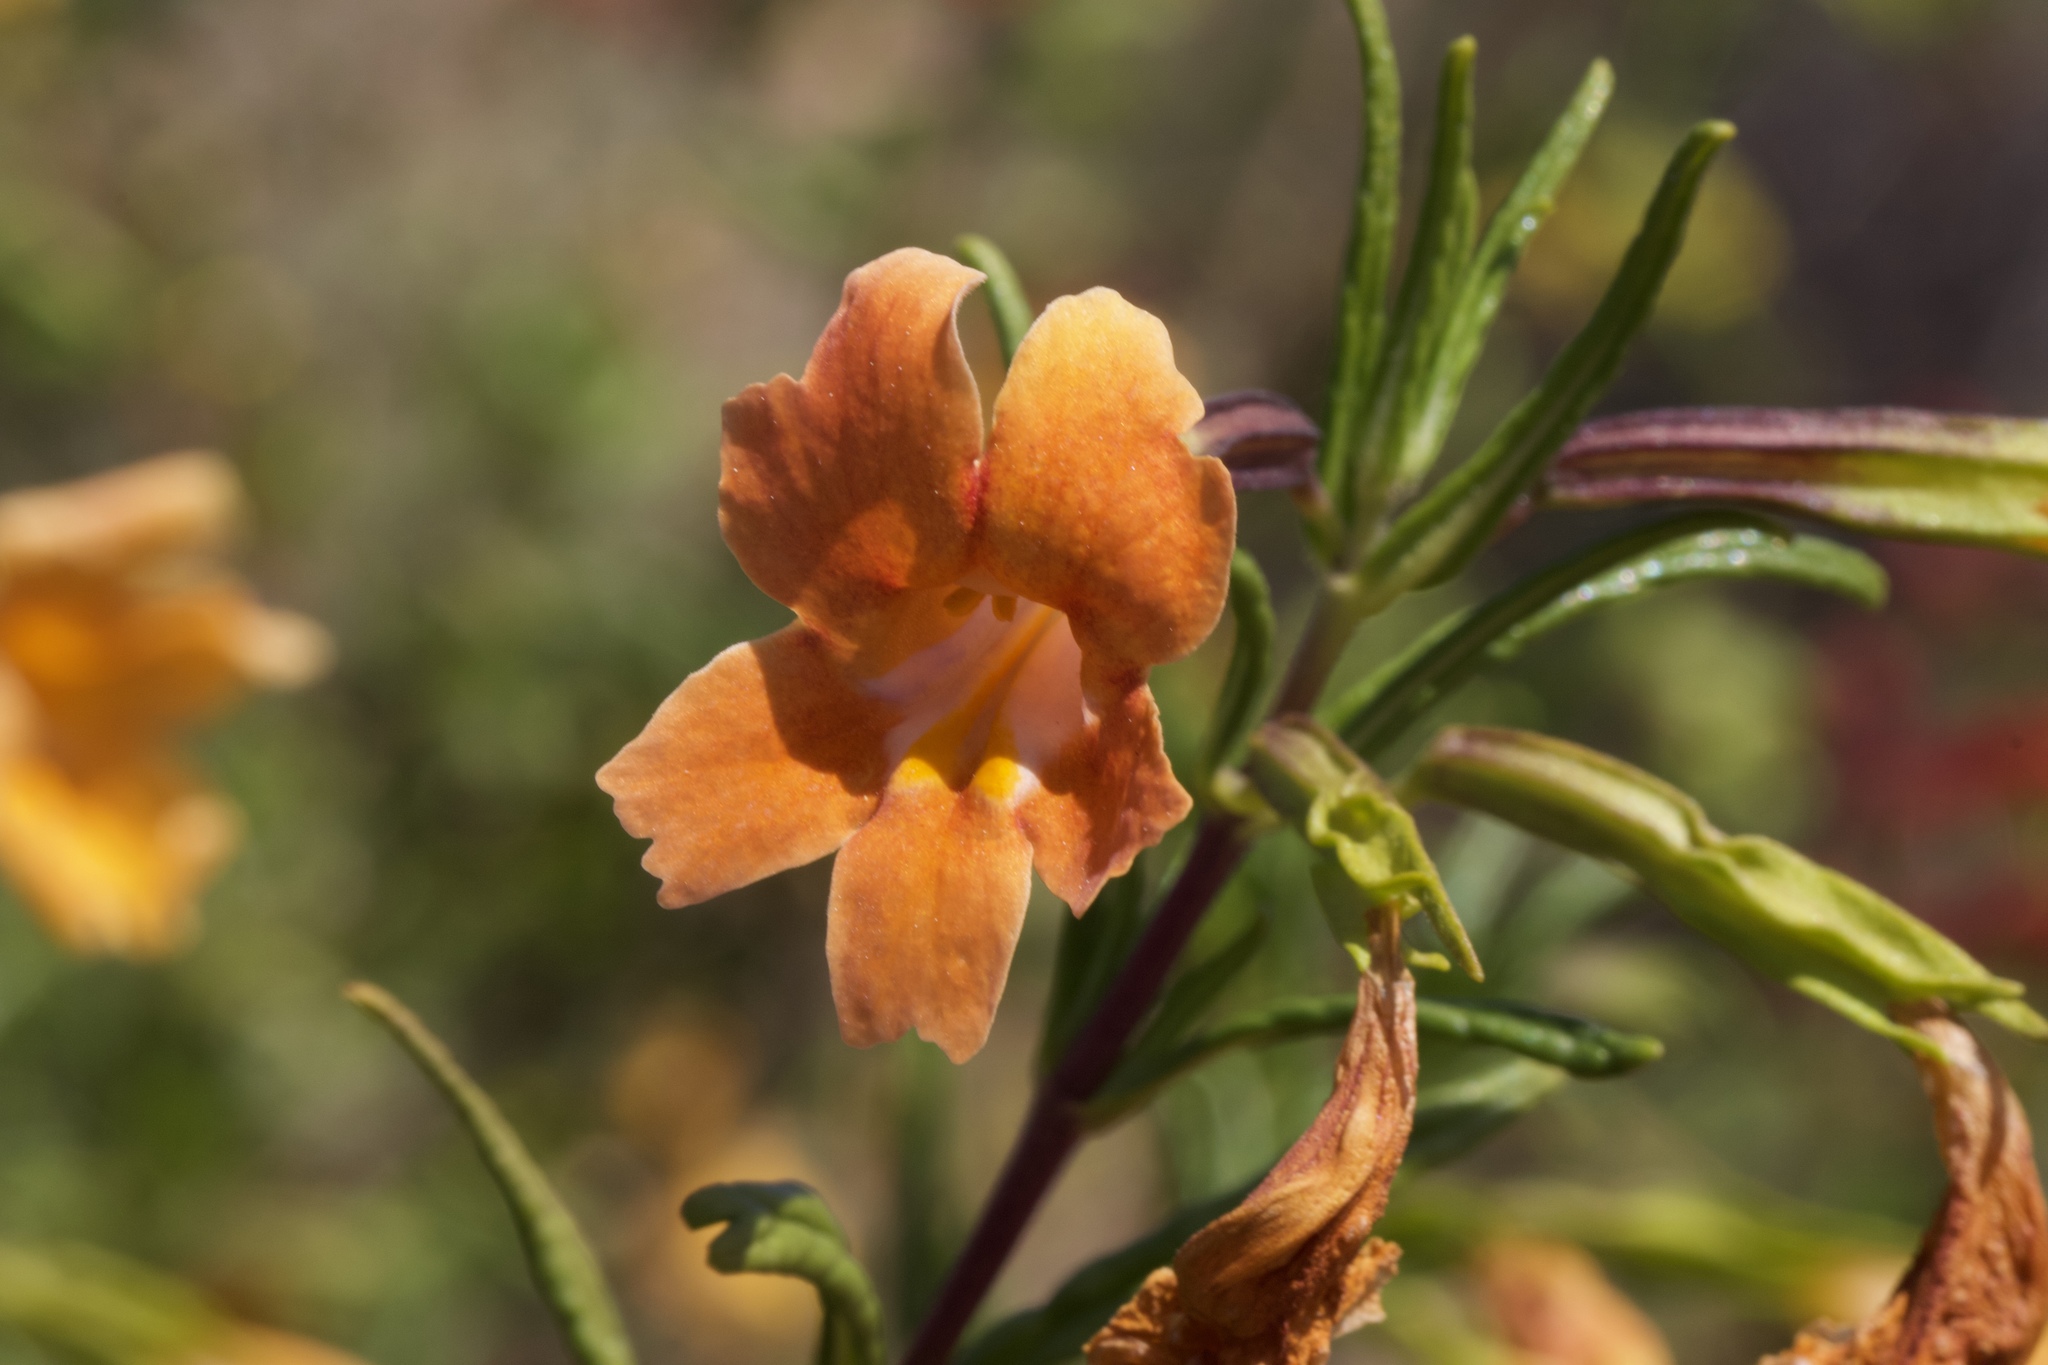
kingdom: Plantae
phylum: Tracheophyta
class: Magnoliopsida
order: Lamiales
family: Phrymaceae
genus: Diplacus
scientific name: Diplacus australis
